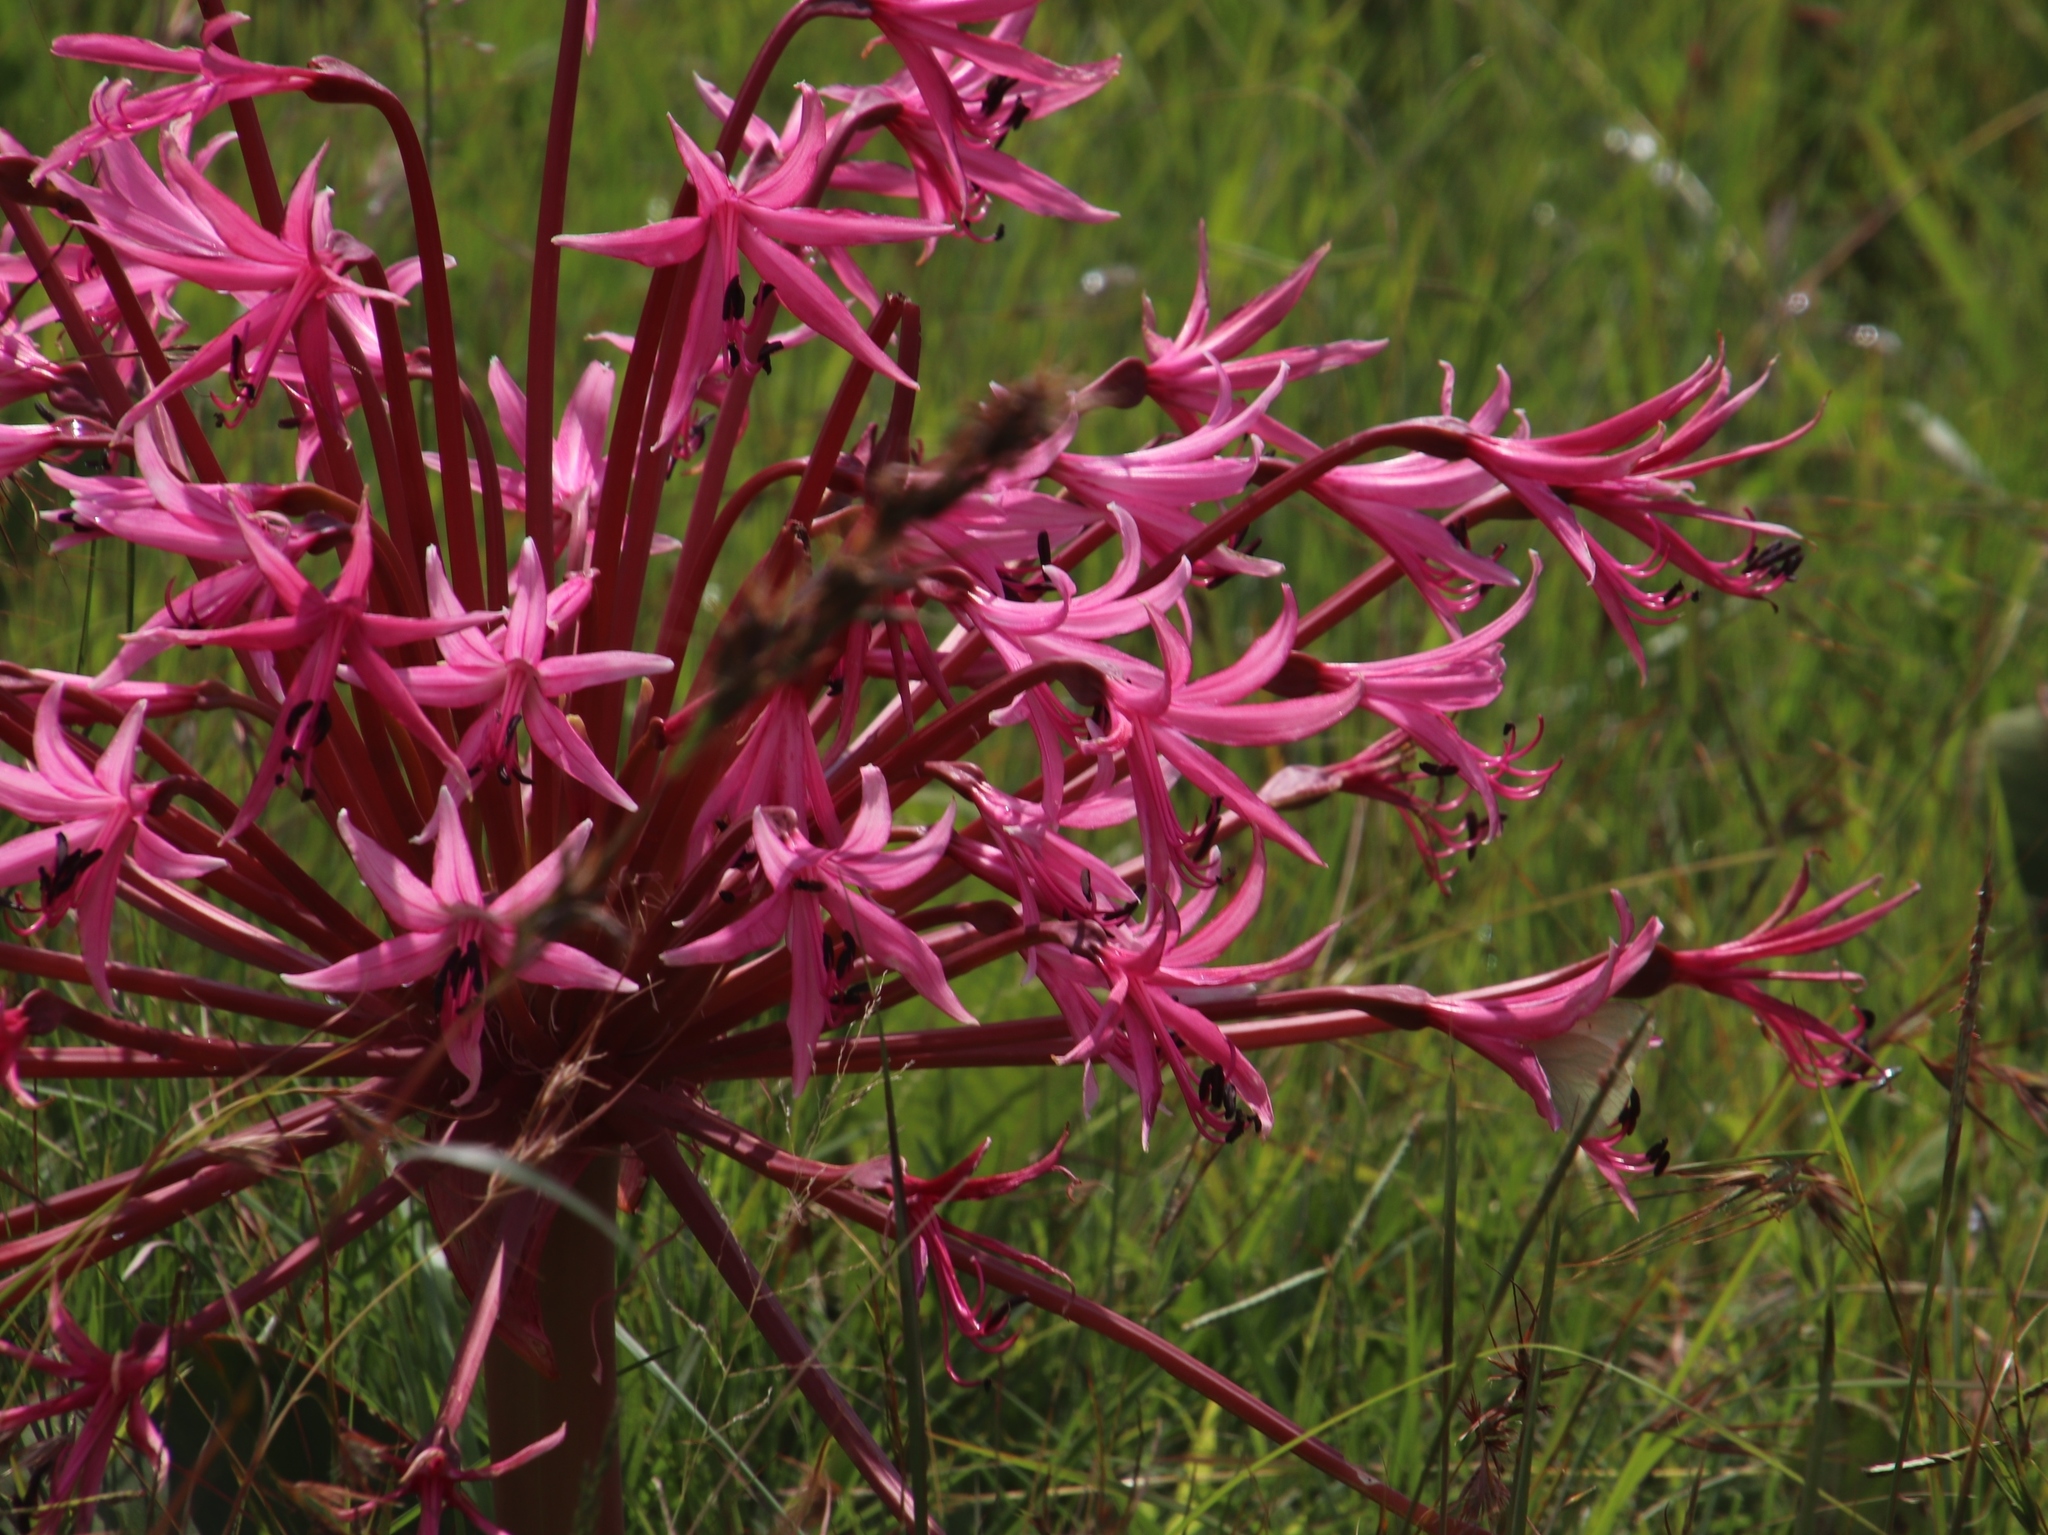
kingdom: Plantae
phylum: Tracheophyta
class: Liliopsida
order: Asparagales
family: Amaryllidaceae
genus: Brunsvigia
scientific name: Brunsvigia radulosa
